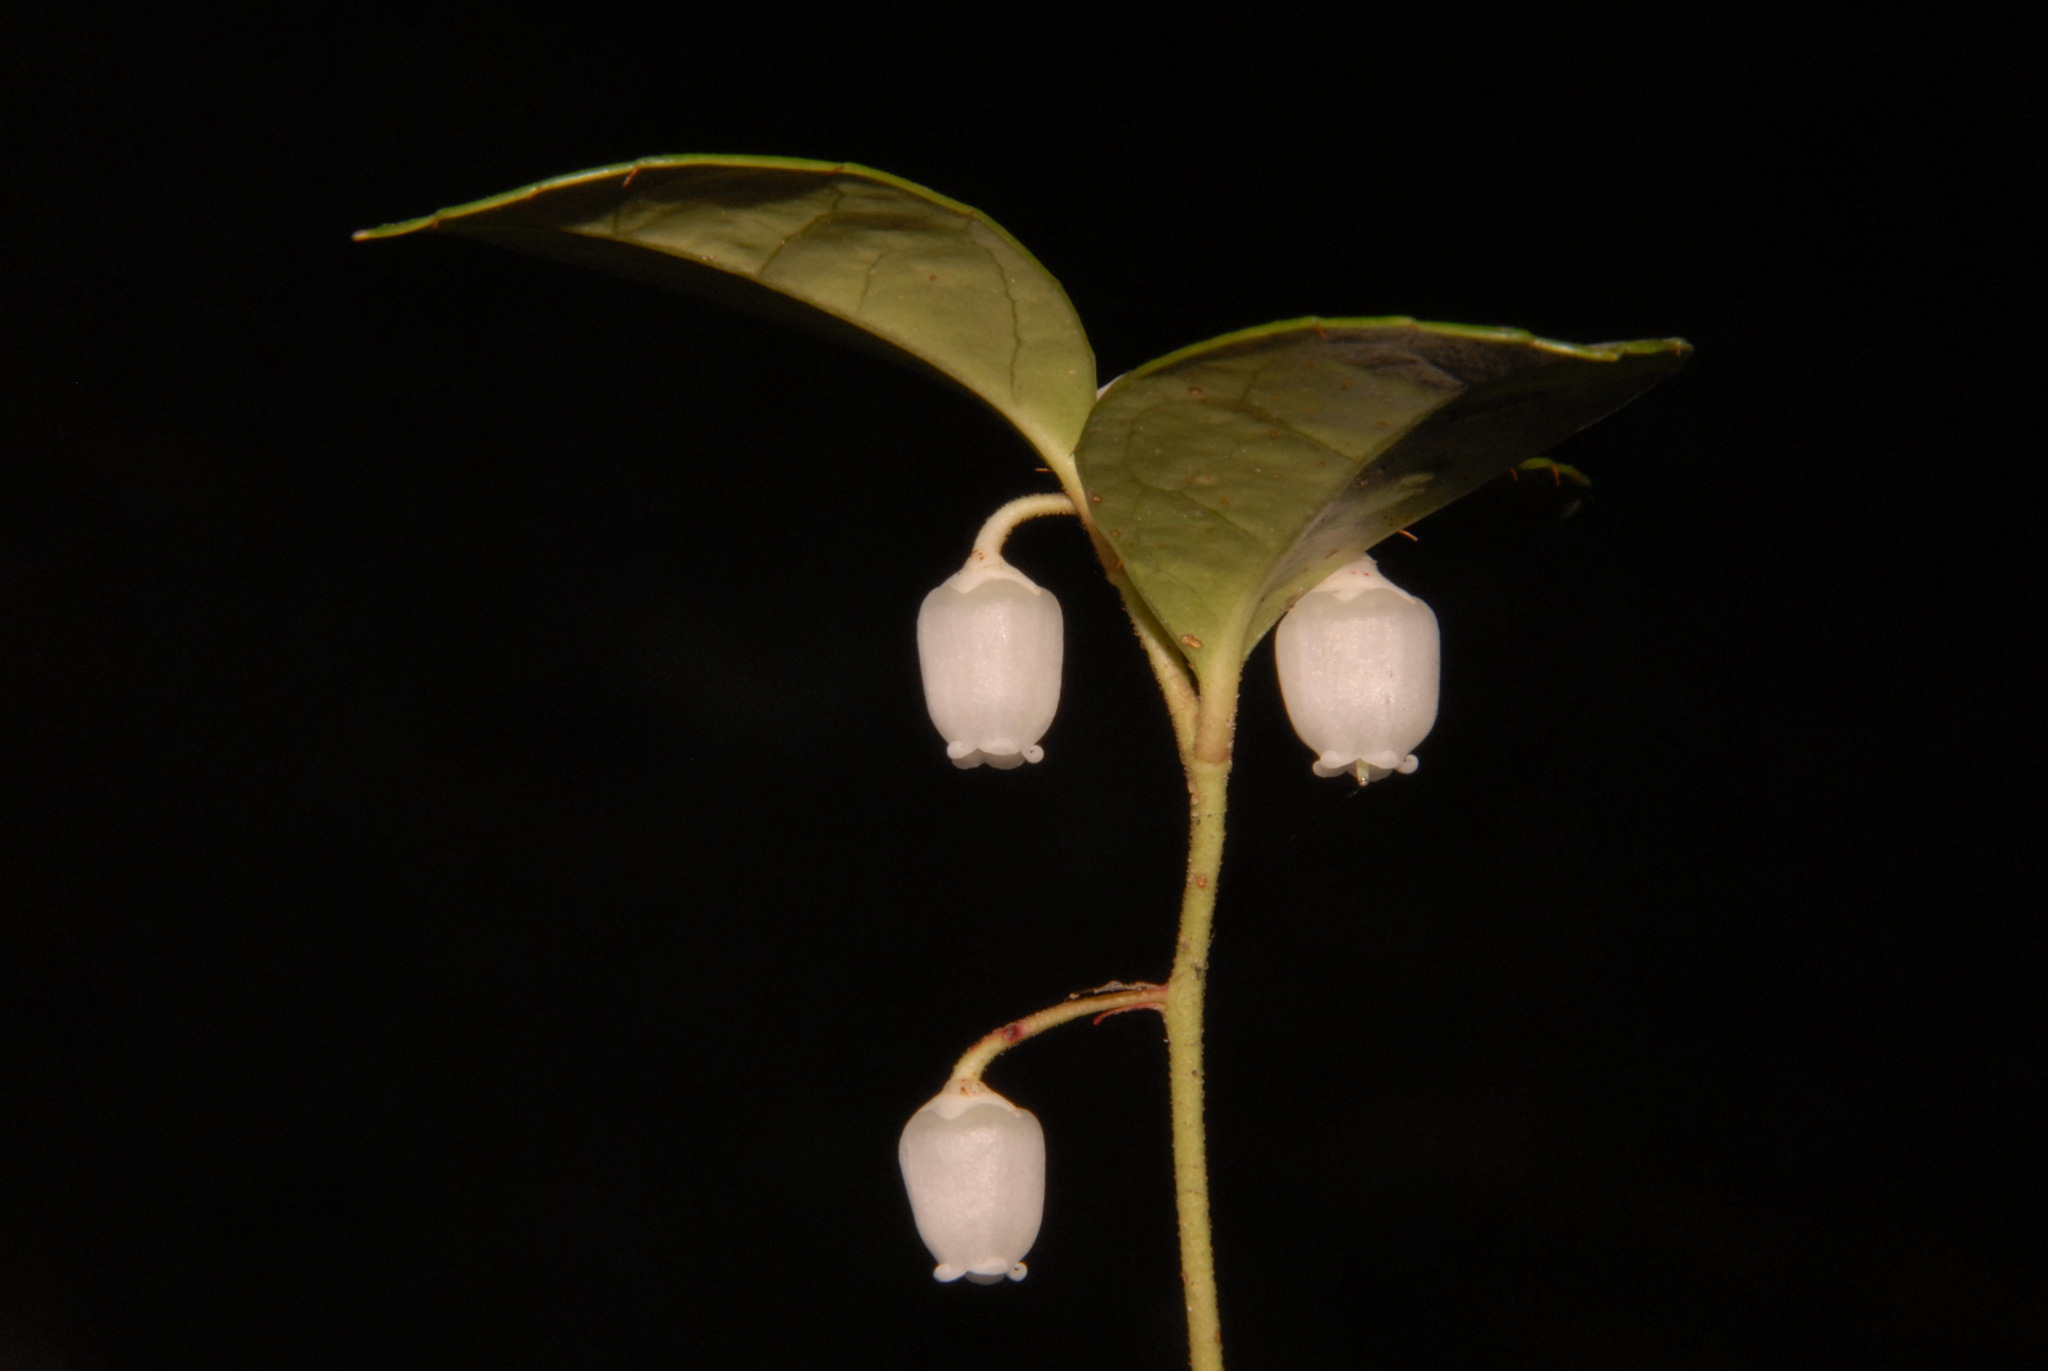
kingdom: Plantae
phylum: Tracheophyta
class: Magnoliopsida
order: Ericales
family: Ericaceae
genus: Gaultheria
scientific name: Gaultheria procumbens
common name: Checkerberry
